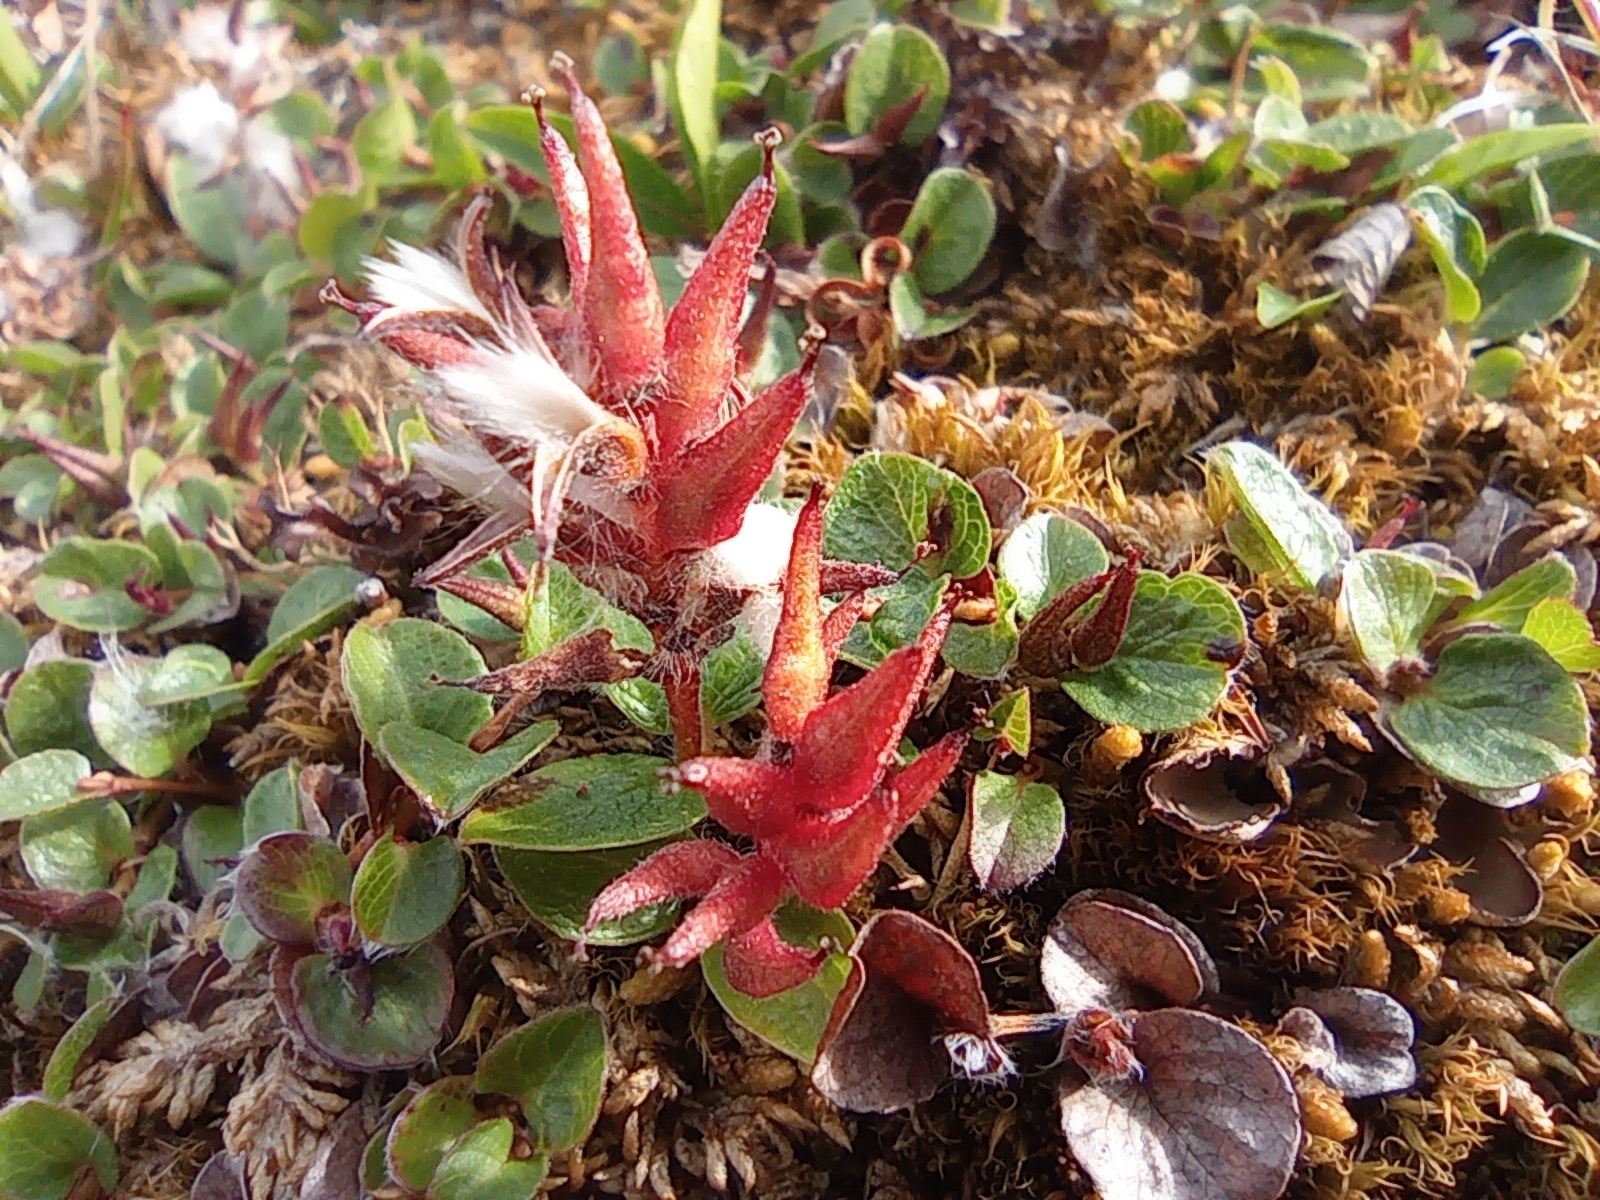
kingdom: Plantae
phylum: Tracheophyta
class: Magnoliopsida
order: Malpighiales
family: Salicaceae
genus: Salix
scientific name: Salix polaris
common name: Polar willow
